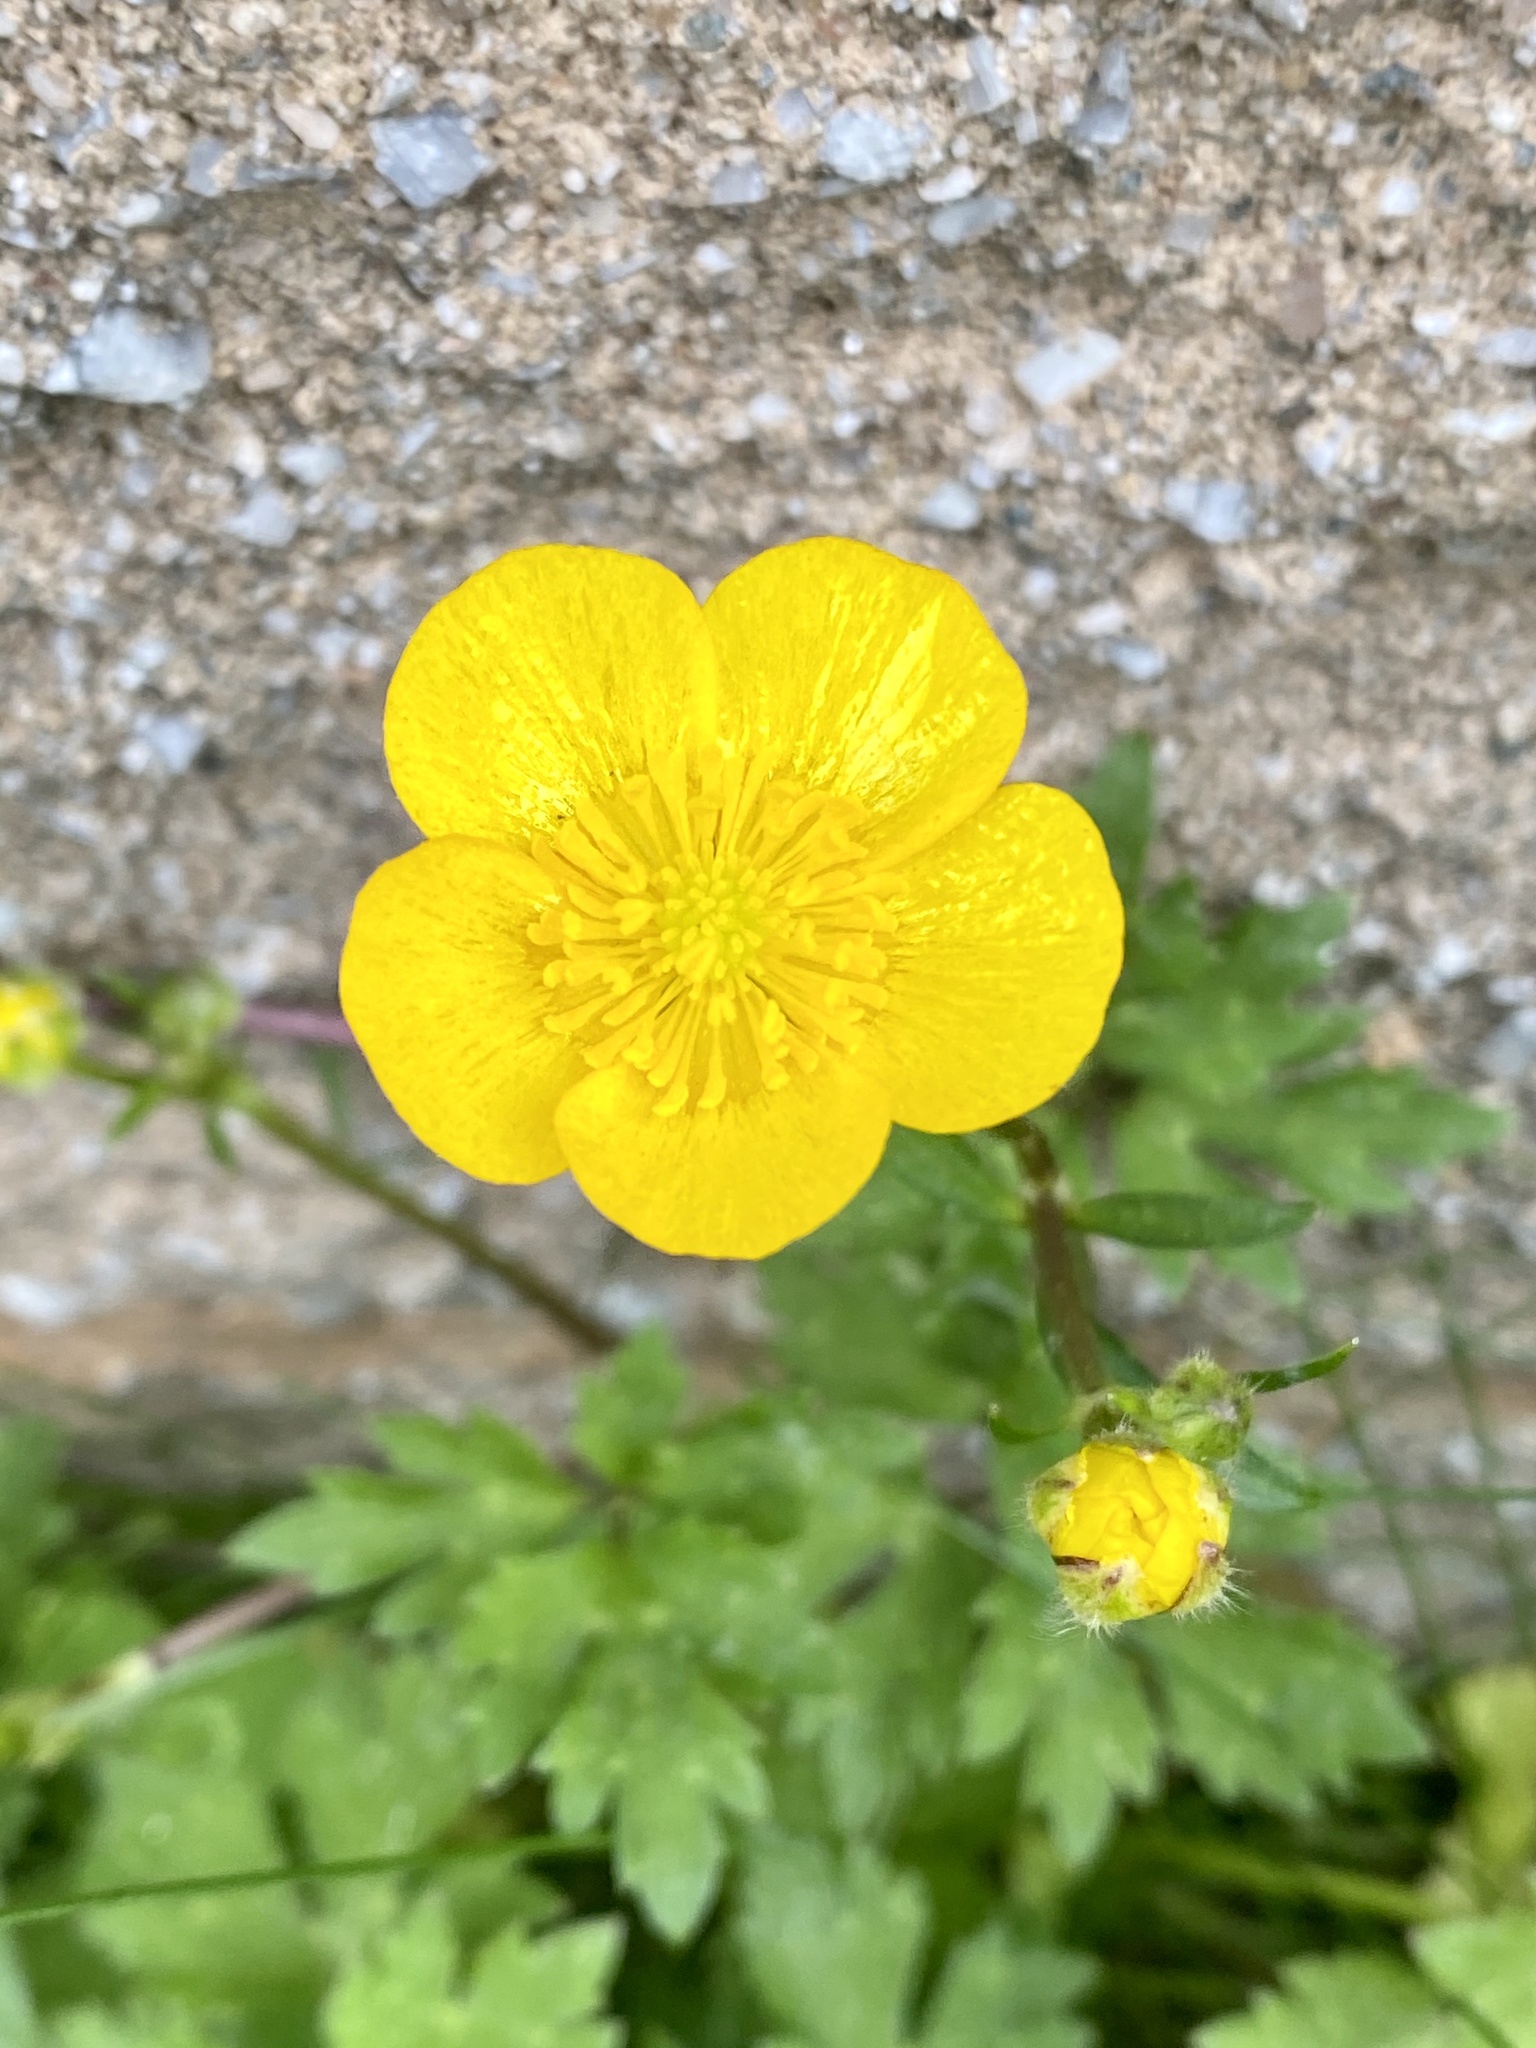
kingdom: Plantae
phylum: Tracheophyta
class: Magnoliopsida
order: Ranunculales
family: Ranunculaceae
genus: Ranunculus
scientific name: Ranunculus repens
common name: Creeping buttercup
